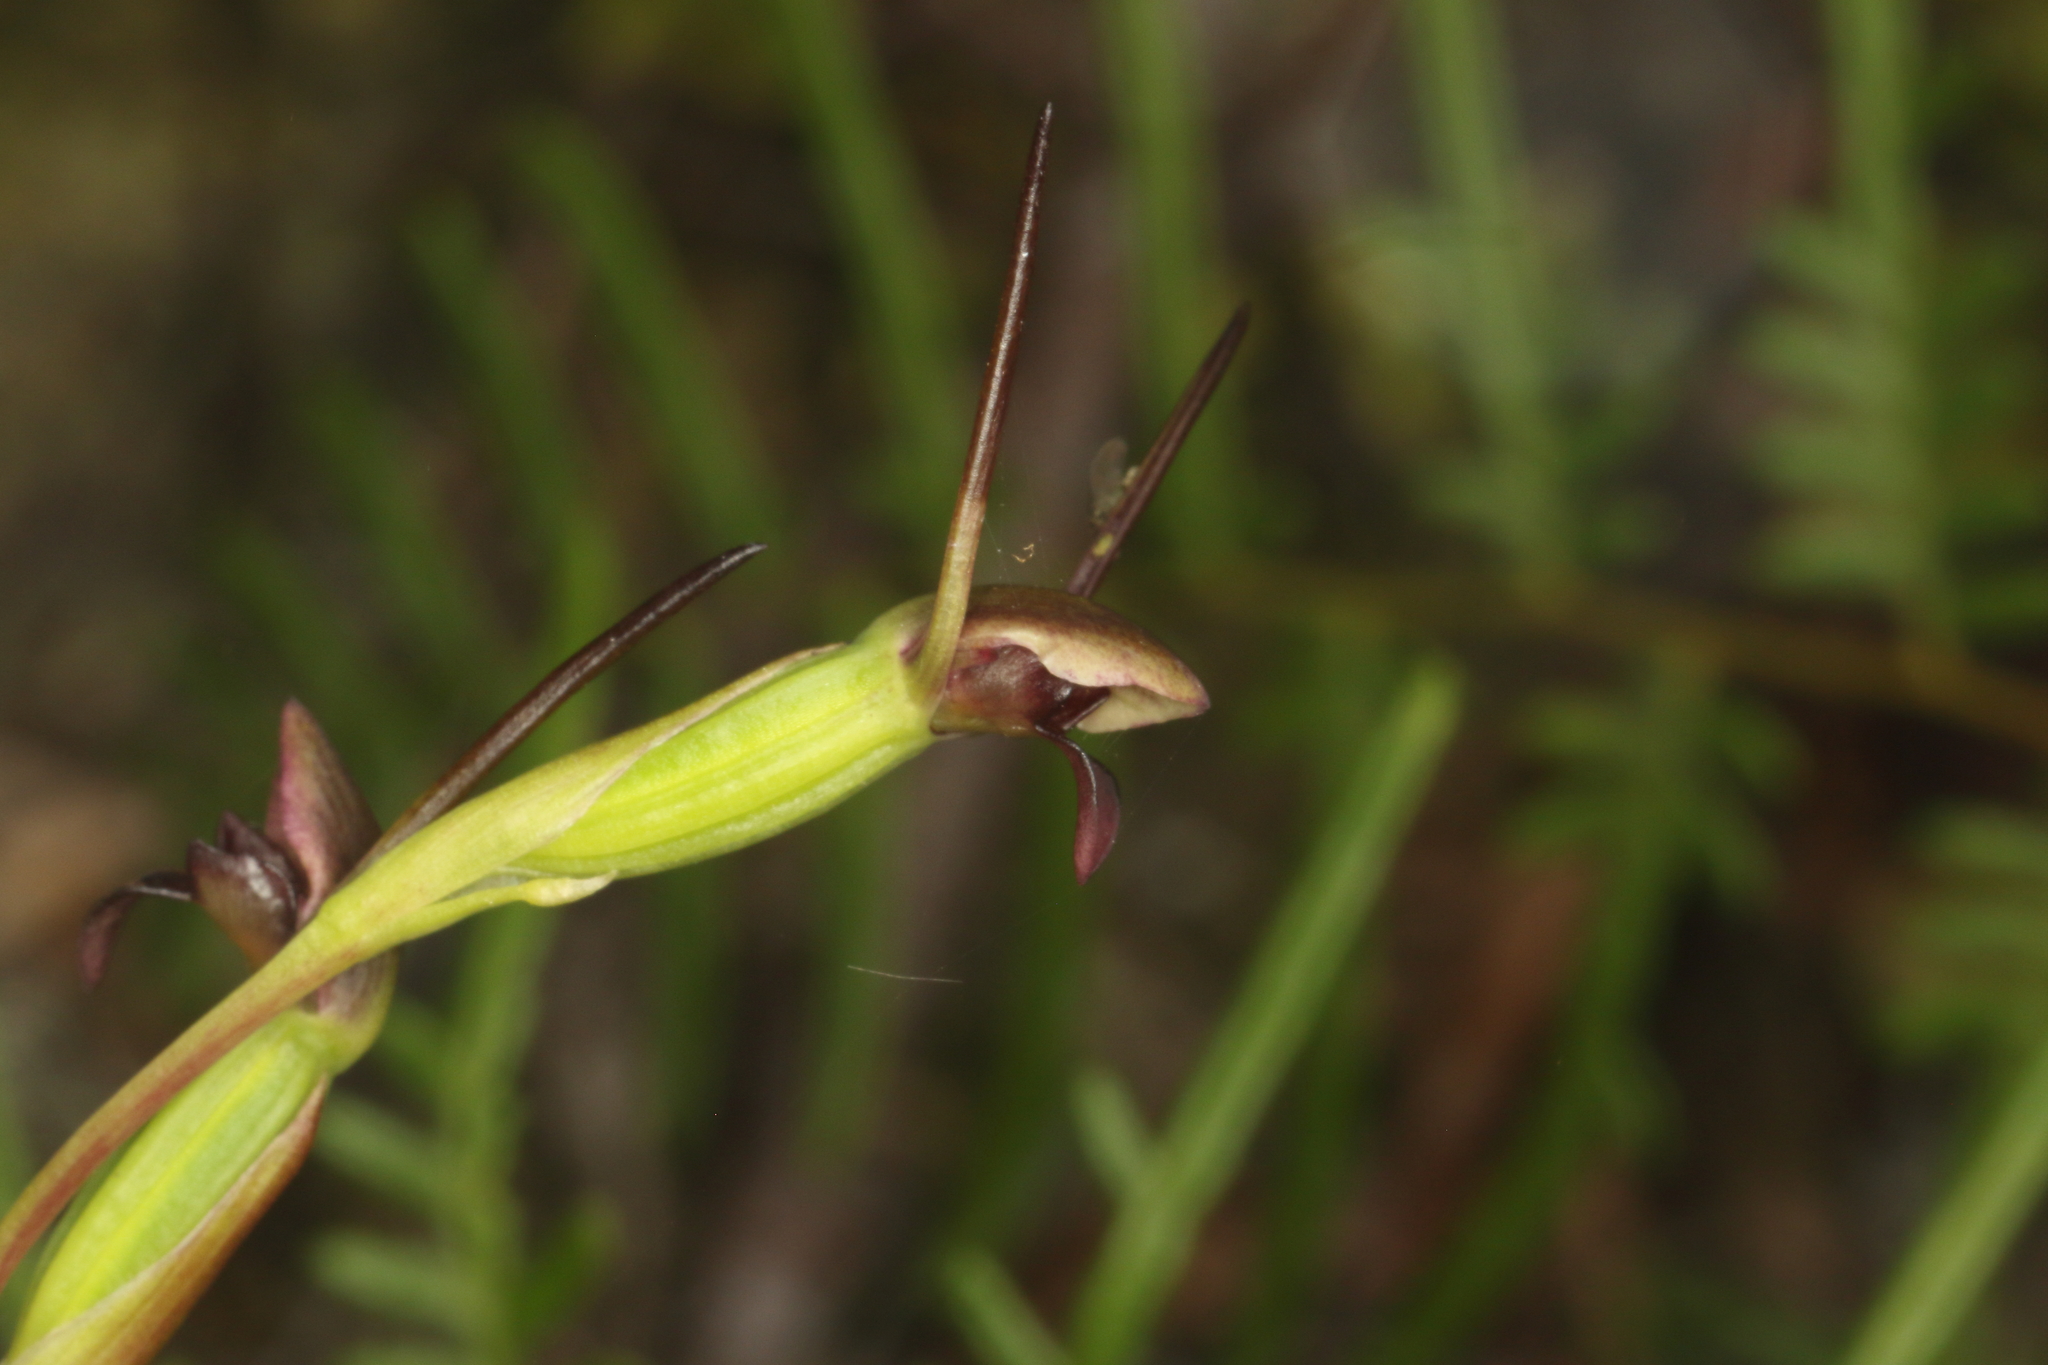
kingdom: Plantae
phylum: Tracheophyta
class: Liliopsida
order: Asparagales
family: Orchidaceae
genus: Orthoceras
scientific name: Orthoceras novae-zeelandiae
